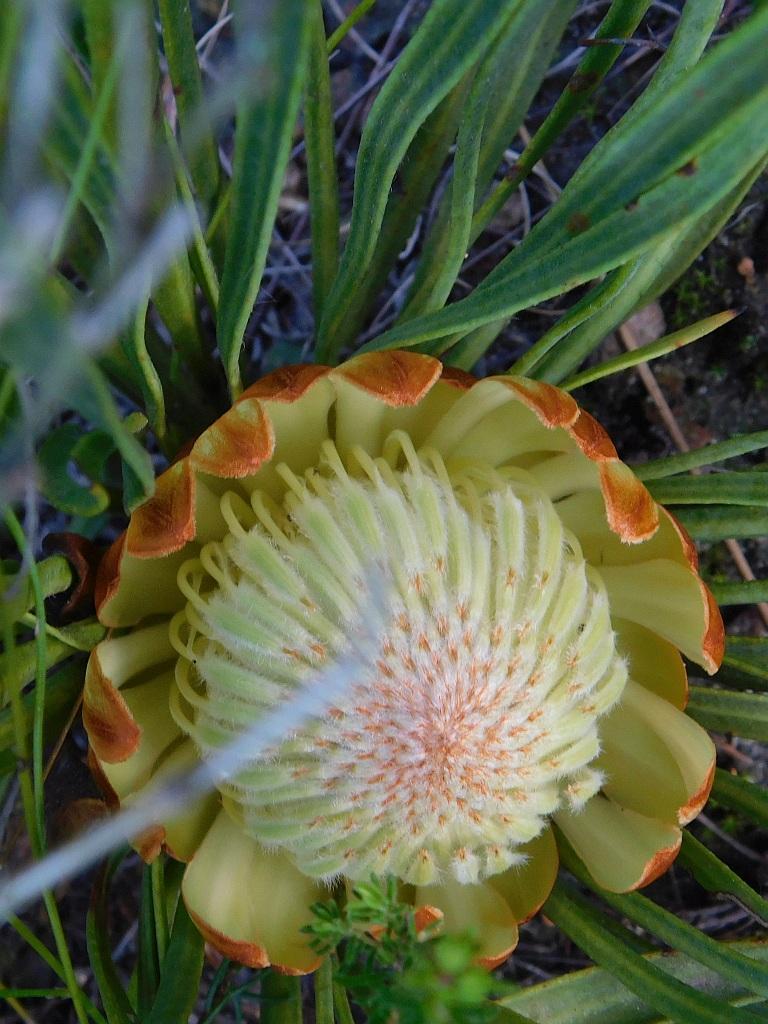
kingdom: Plantae
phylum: Tracheophyta
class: Magnoliopsida
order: Proteales
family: Proteaceae
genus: Protea
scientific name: Protea scabra
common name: Sandpaper-leaf sugarbush
